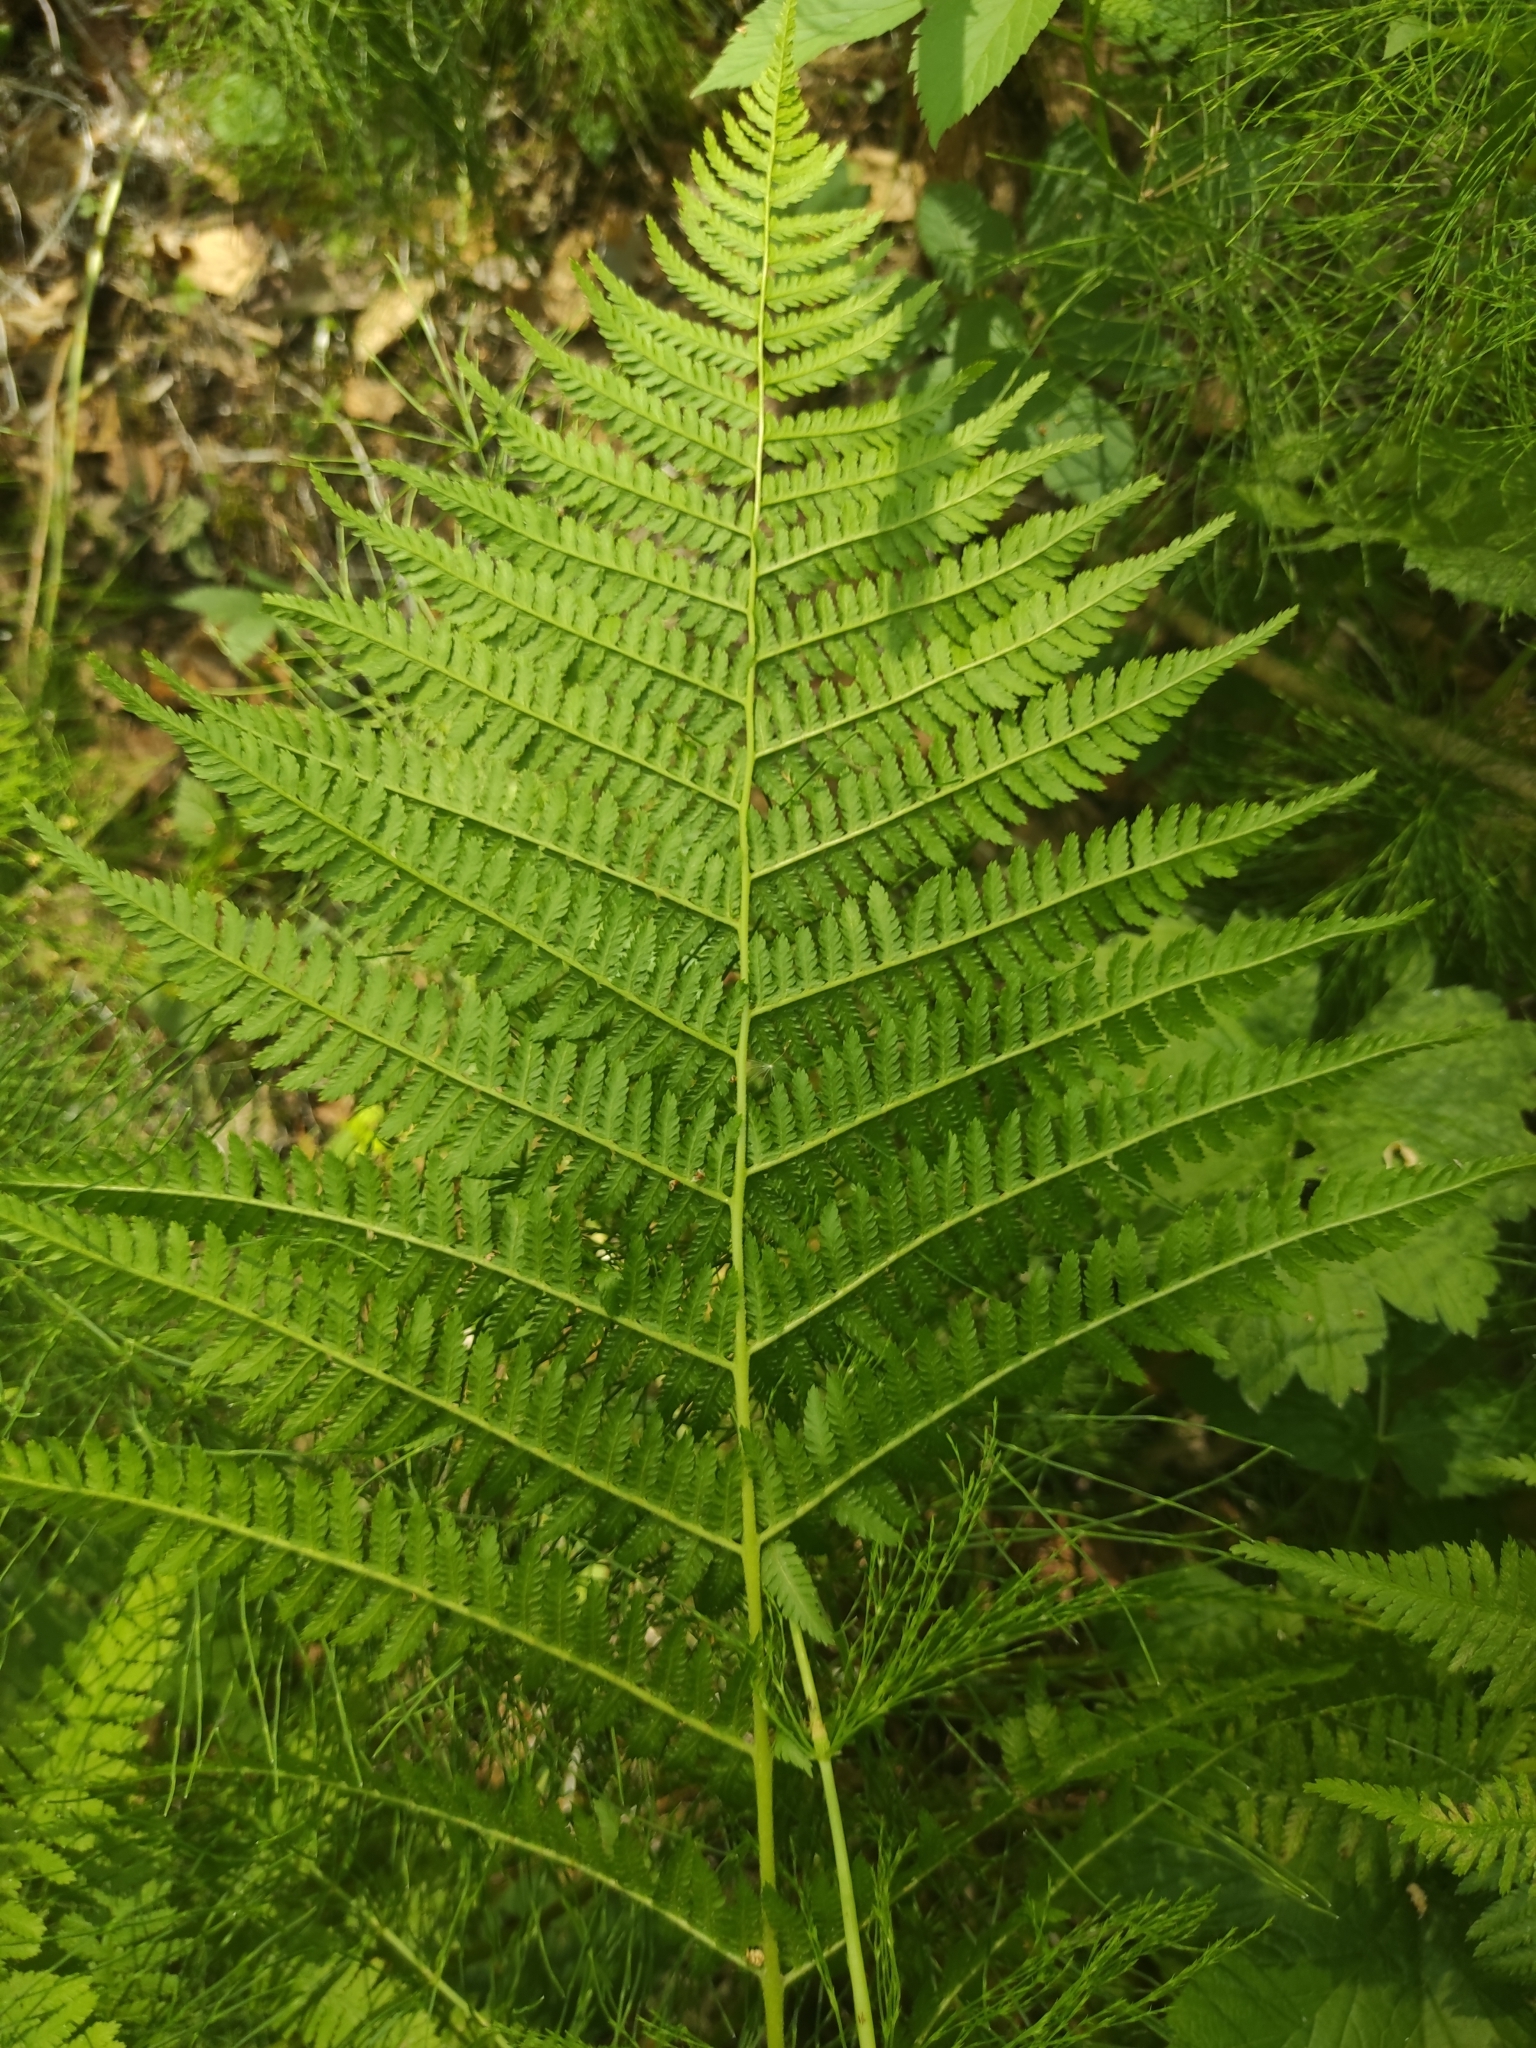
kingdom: Plantae
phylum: Tracheophyta
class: Polypodiopsida
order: Polypodiales
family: Athyriaceae
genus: Athyrium
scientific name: Athyrium filix-femina
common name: Lady fern
